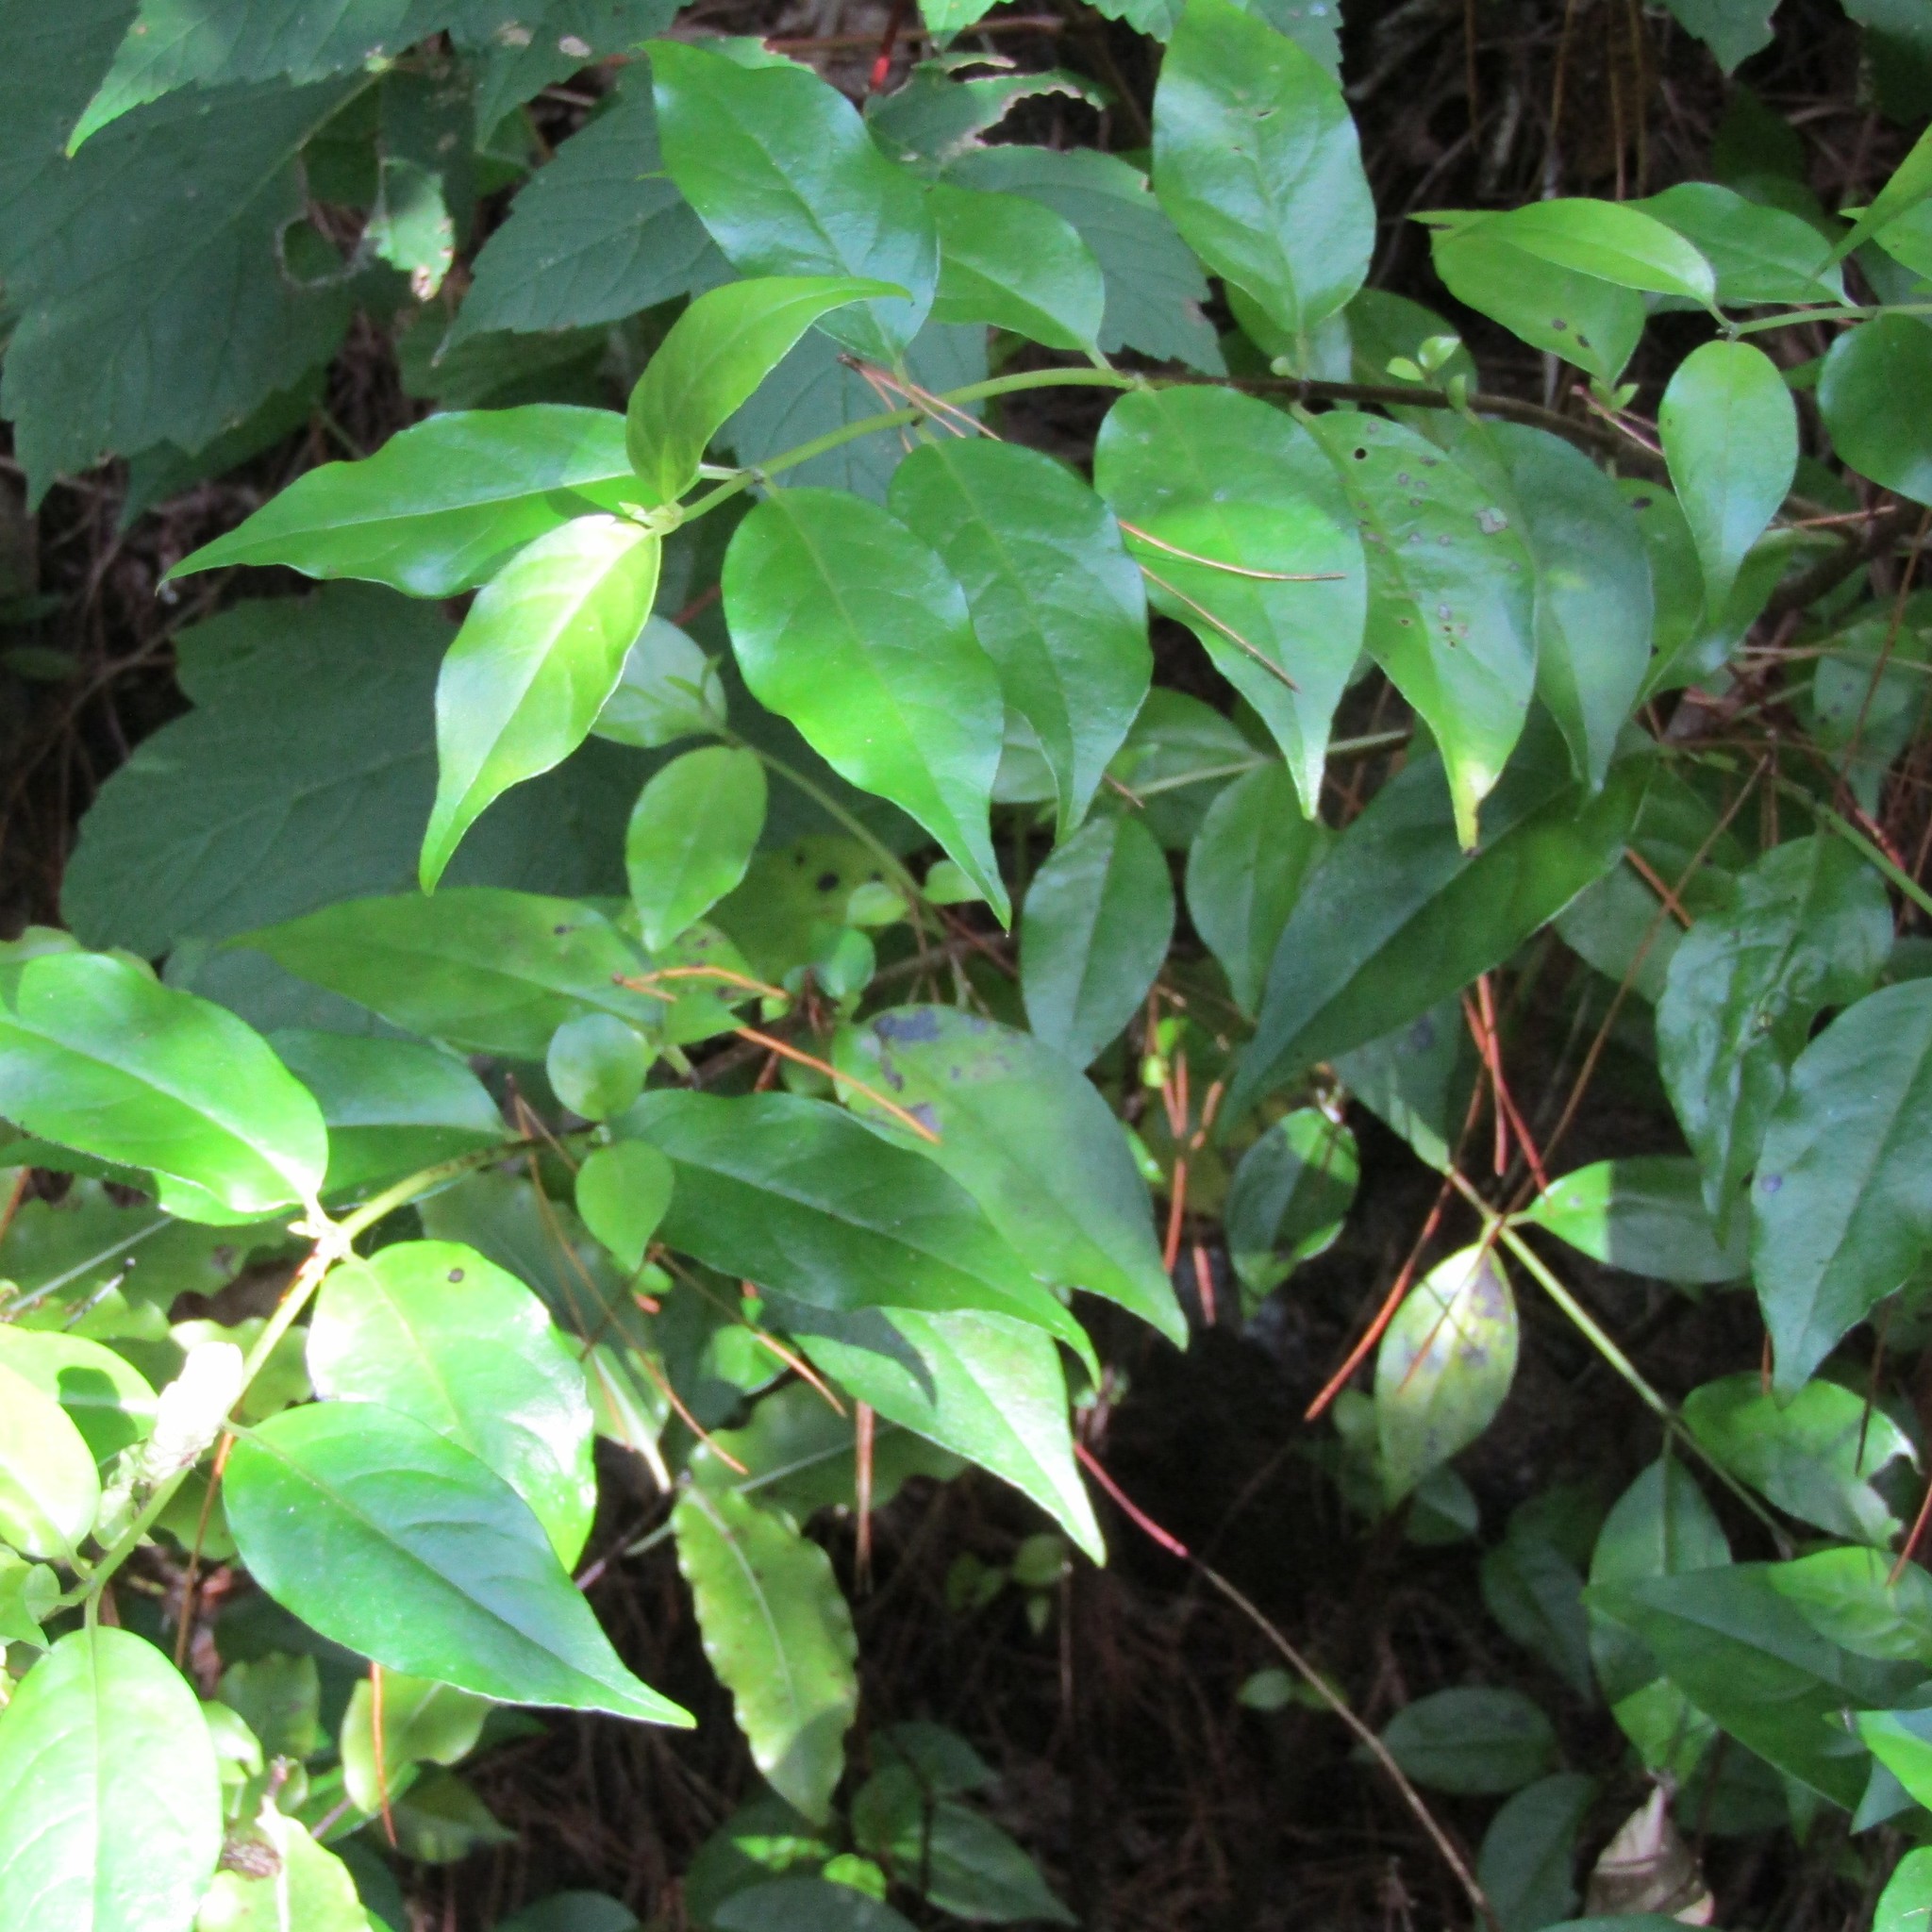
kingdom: Plantae
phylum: Tracheophyta
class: Magnoliopsida
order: Gentianales
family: Loganiaceae
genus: Geniostoma
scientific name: Geniostoma ligustrifolium
